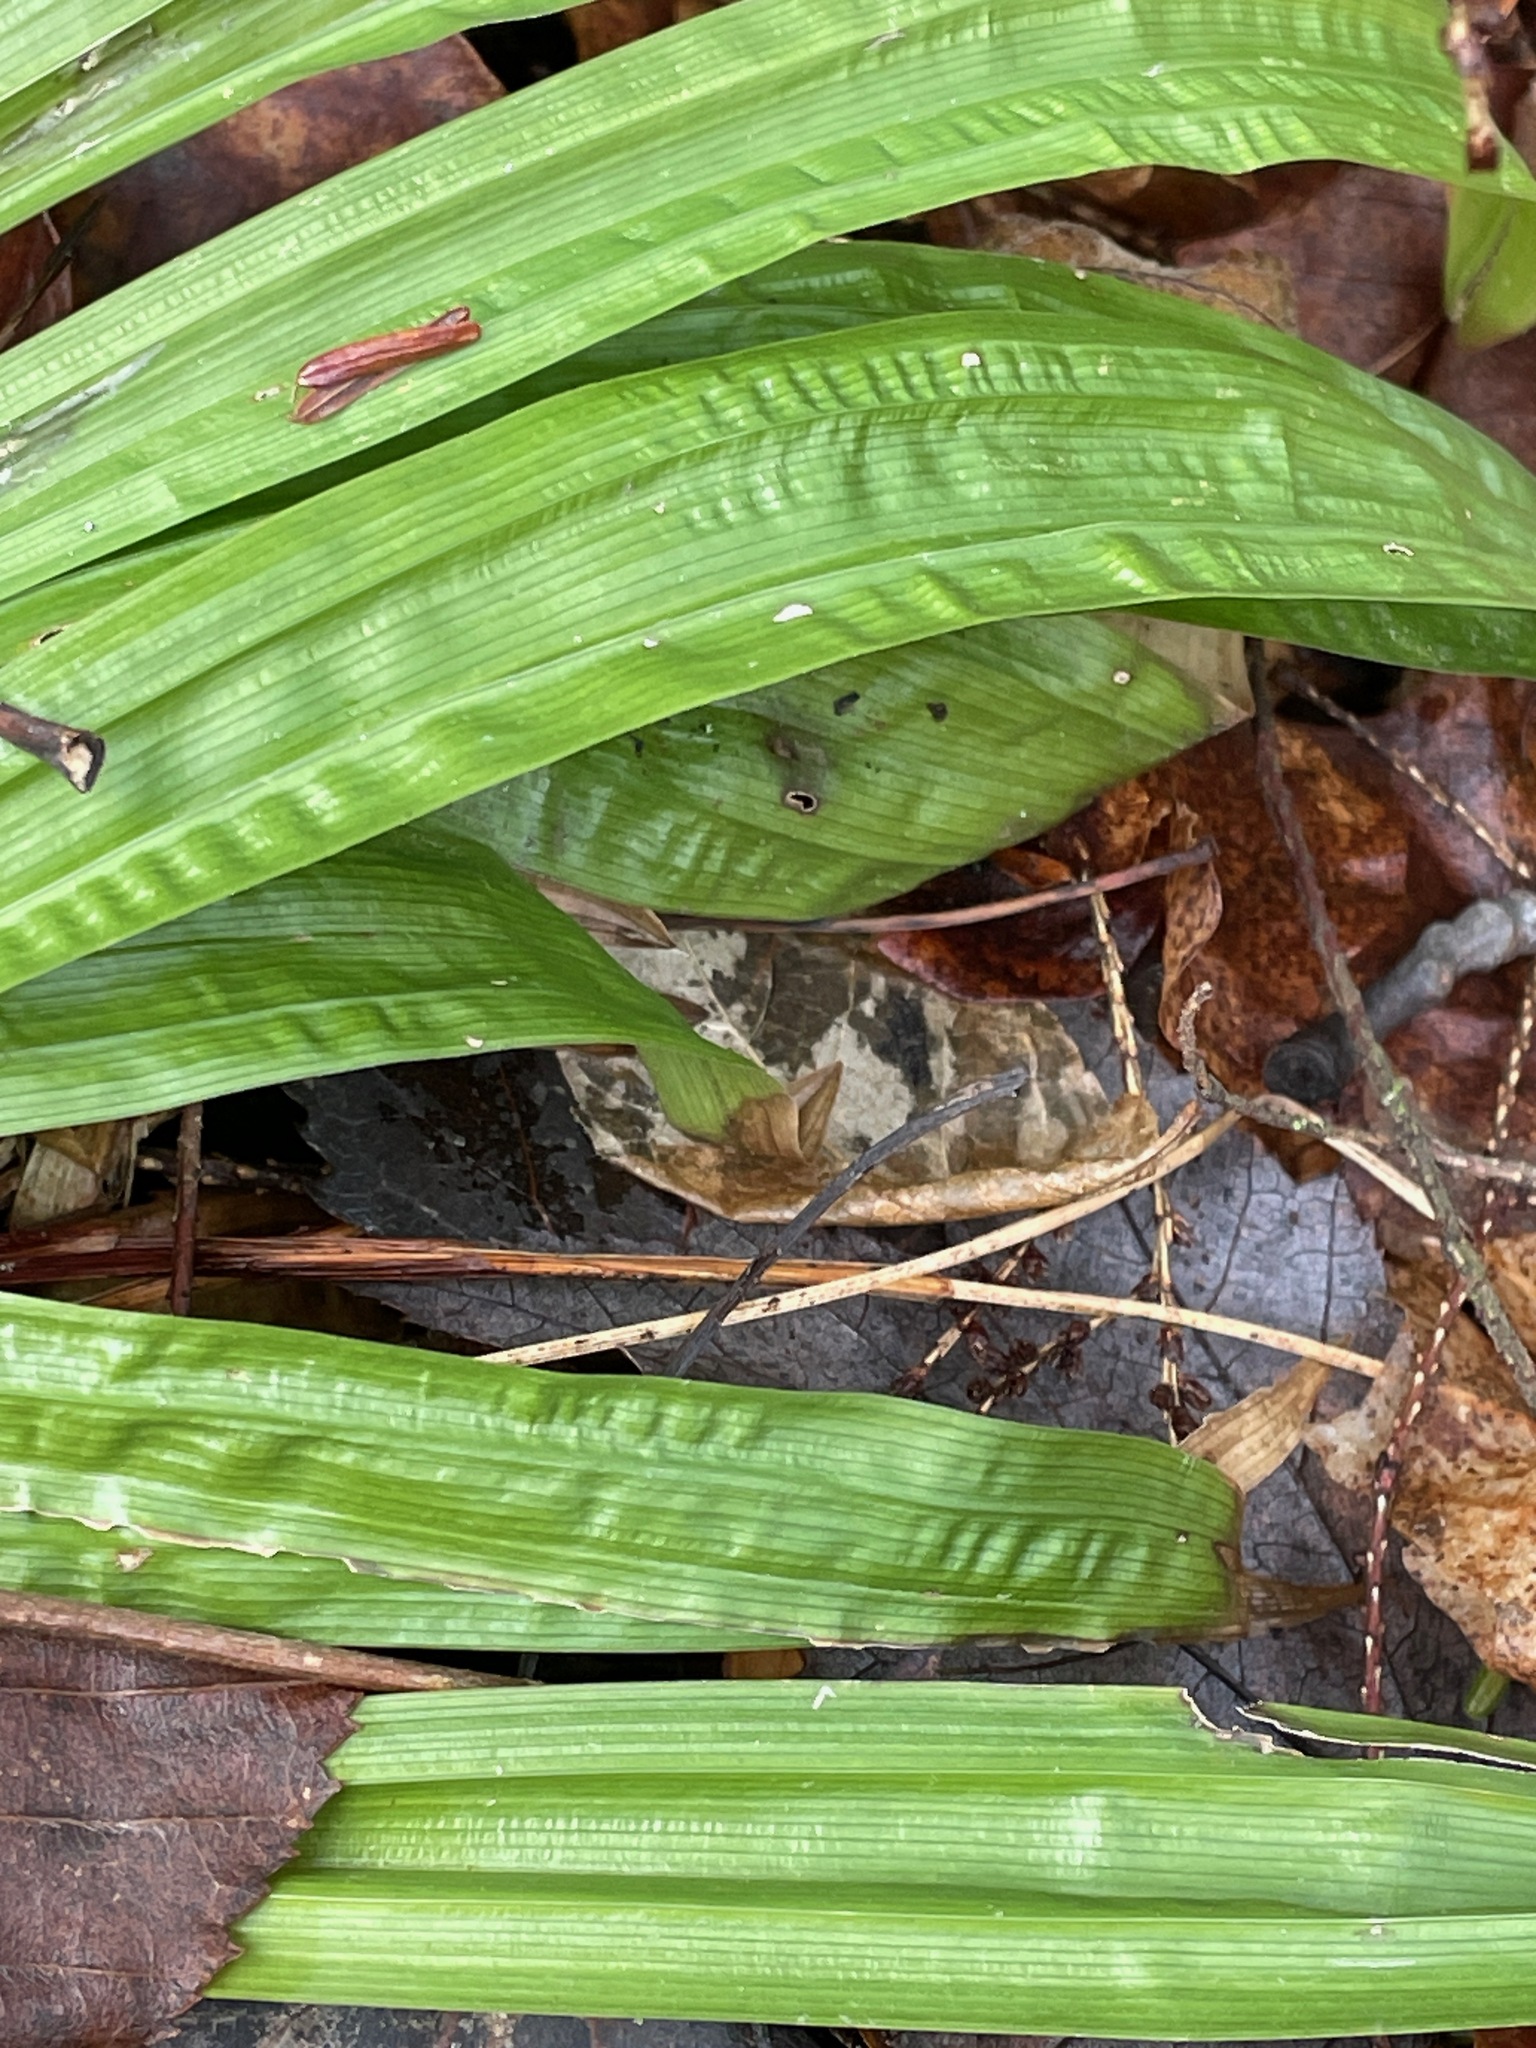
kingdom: Plantae
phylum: Tracheophyta
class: Liliopsida
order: Poales
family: Cyperaceae
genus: Carex
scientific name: Carex plantaginea
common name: Plantain-leaved sedge
